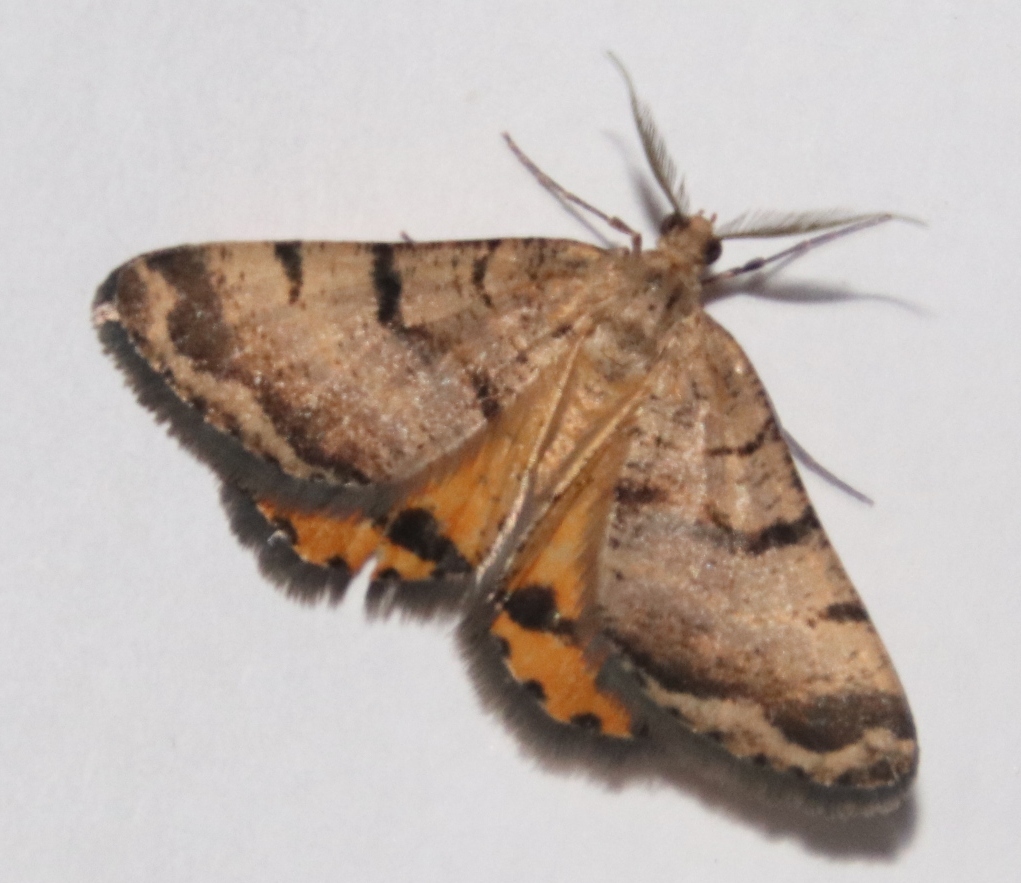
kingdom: Animalia
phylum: Arthropoda
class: Insecta
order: Lepidoptera
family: Geometridae
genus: Isturgia
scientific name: Isturgia focularia
